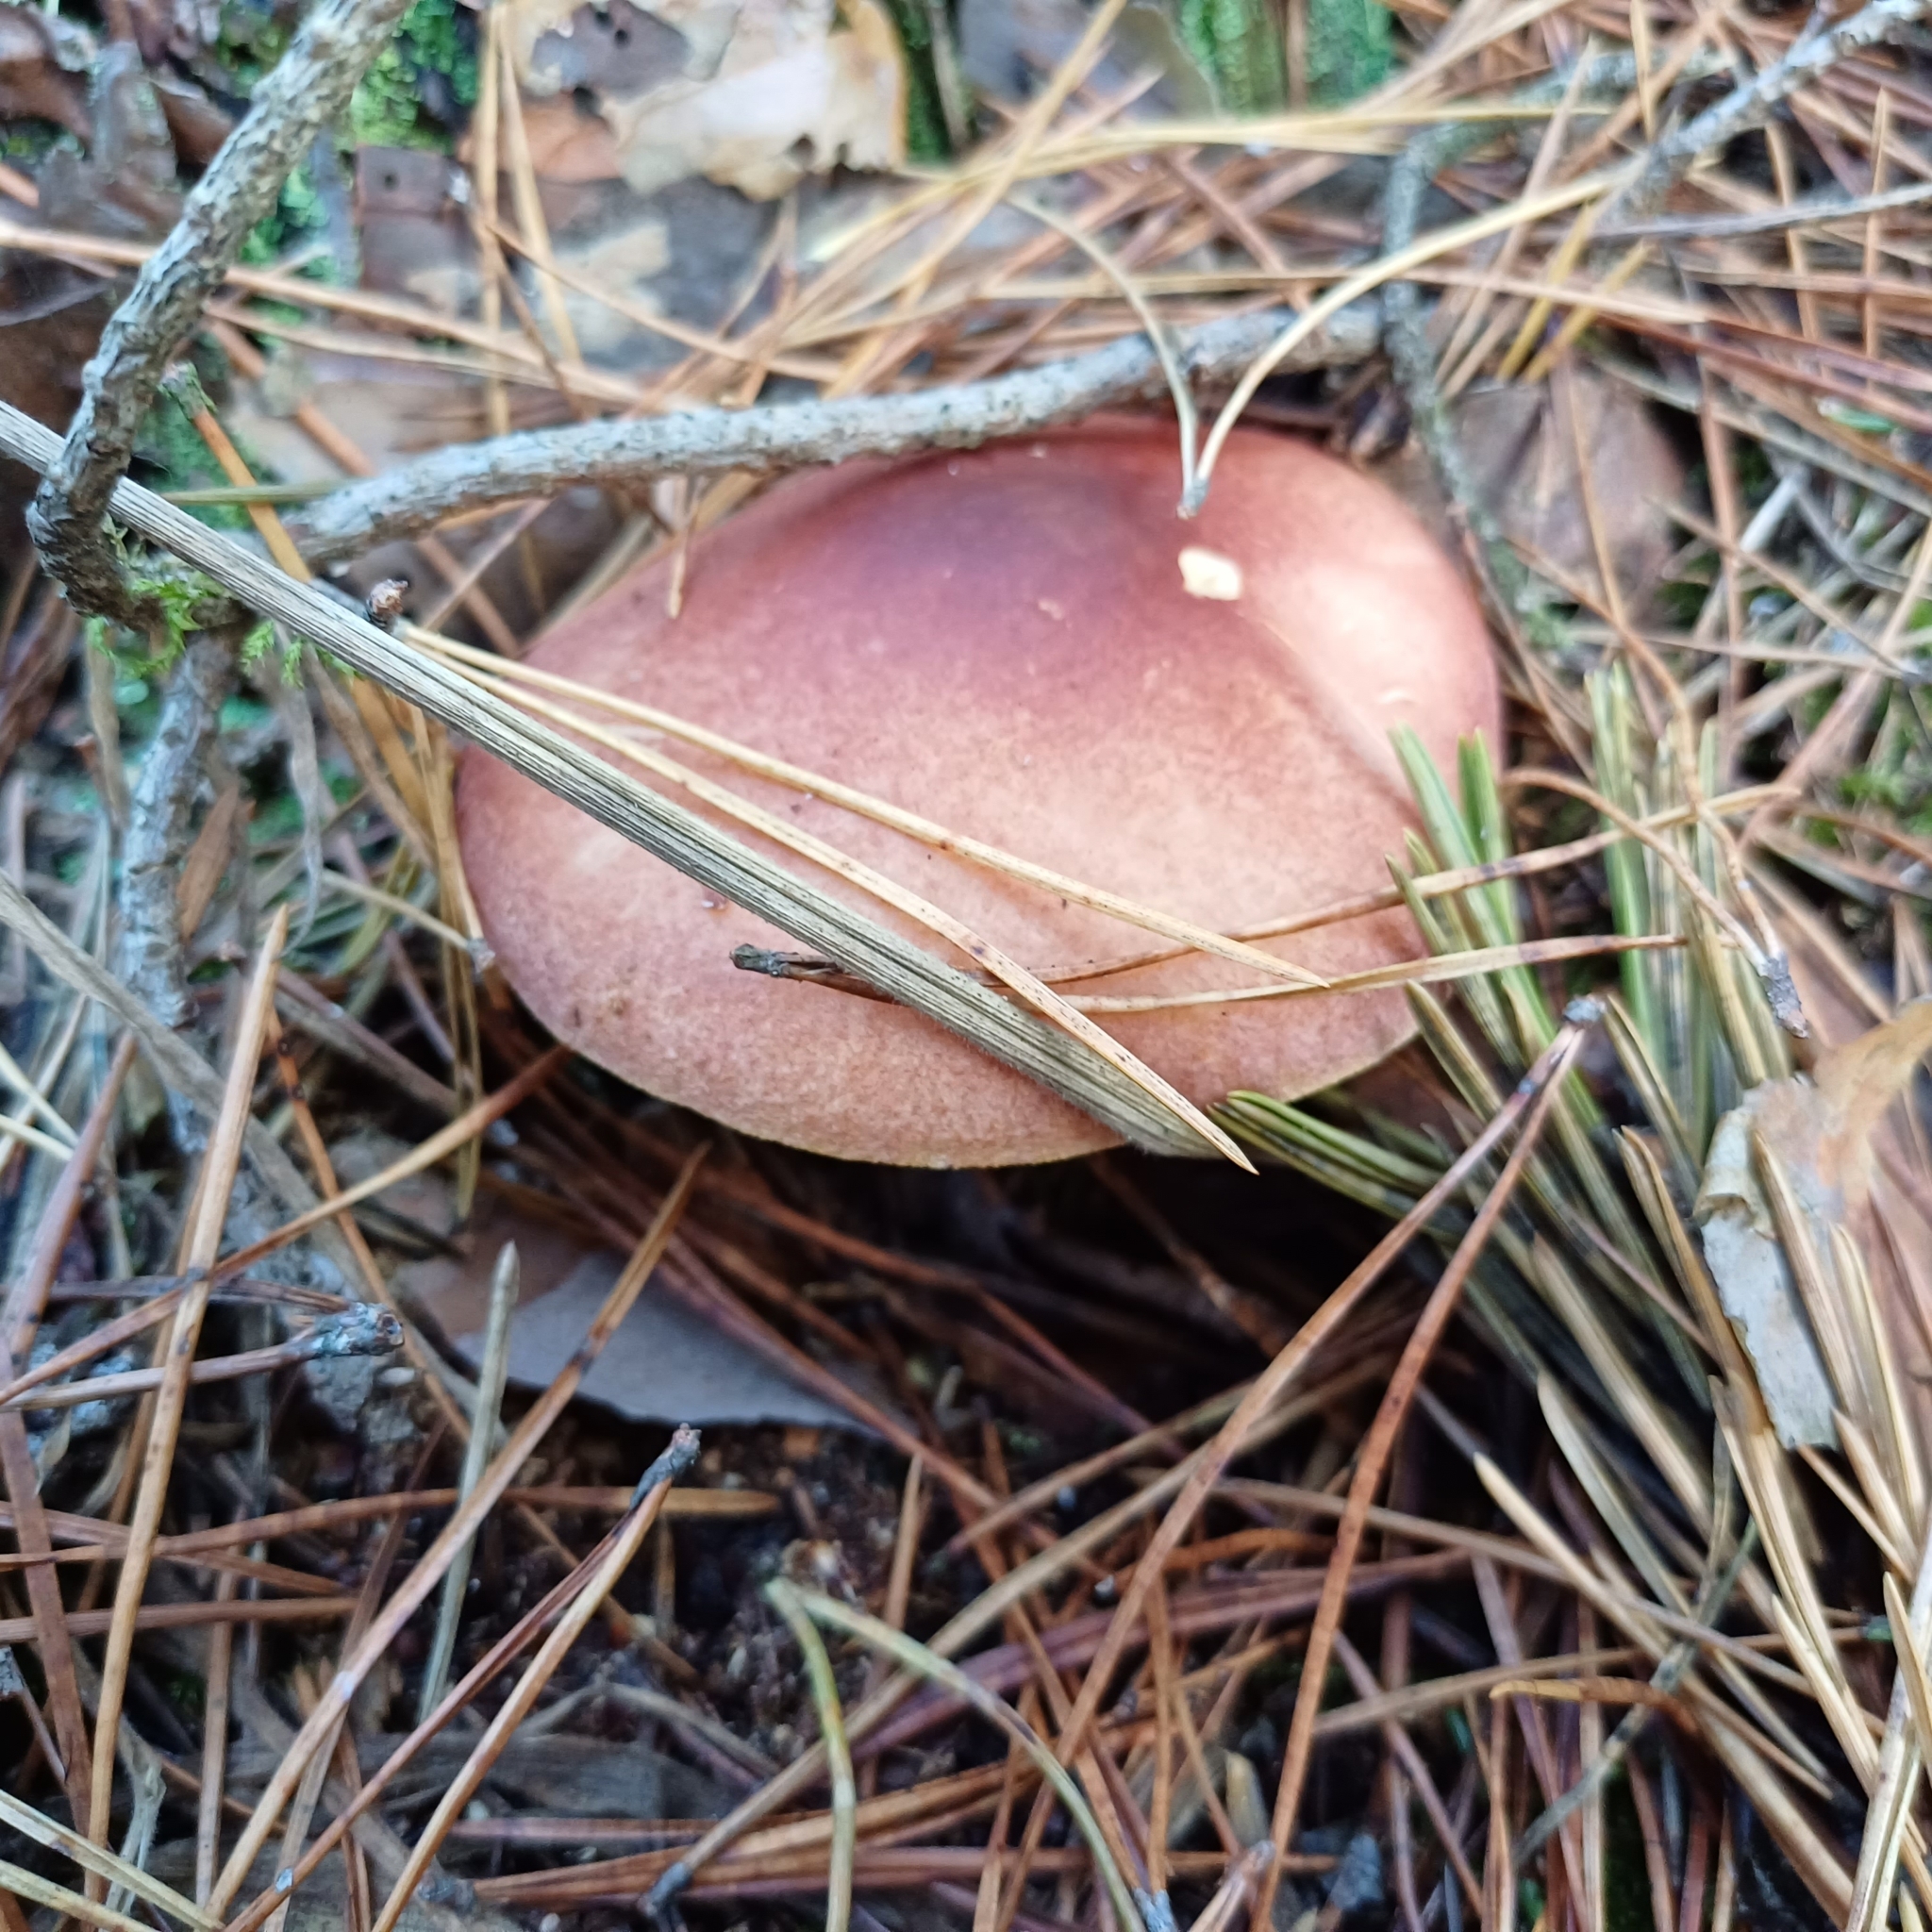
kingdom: Fungi
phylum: Basidiomycota
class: Agaricomycetes
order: Agaricales
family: Tricholomataceae
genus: Tricholomopsis
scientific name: Tricholomopsis rutilans
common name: Plums and custard
